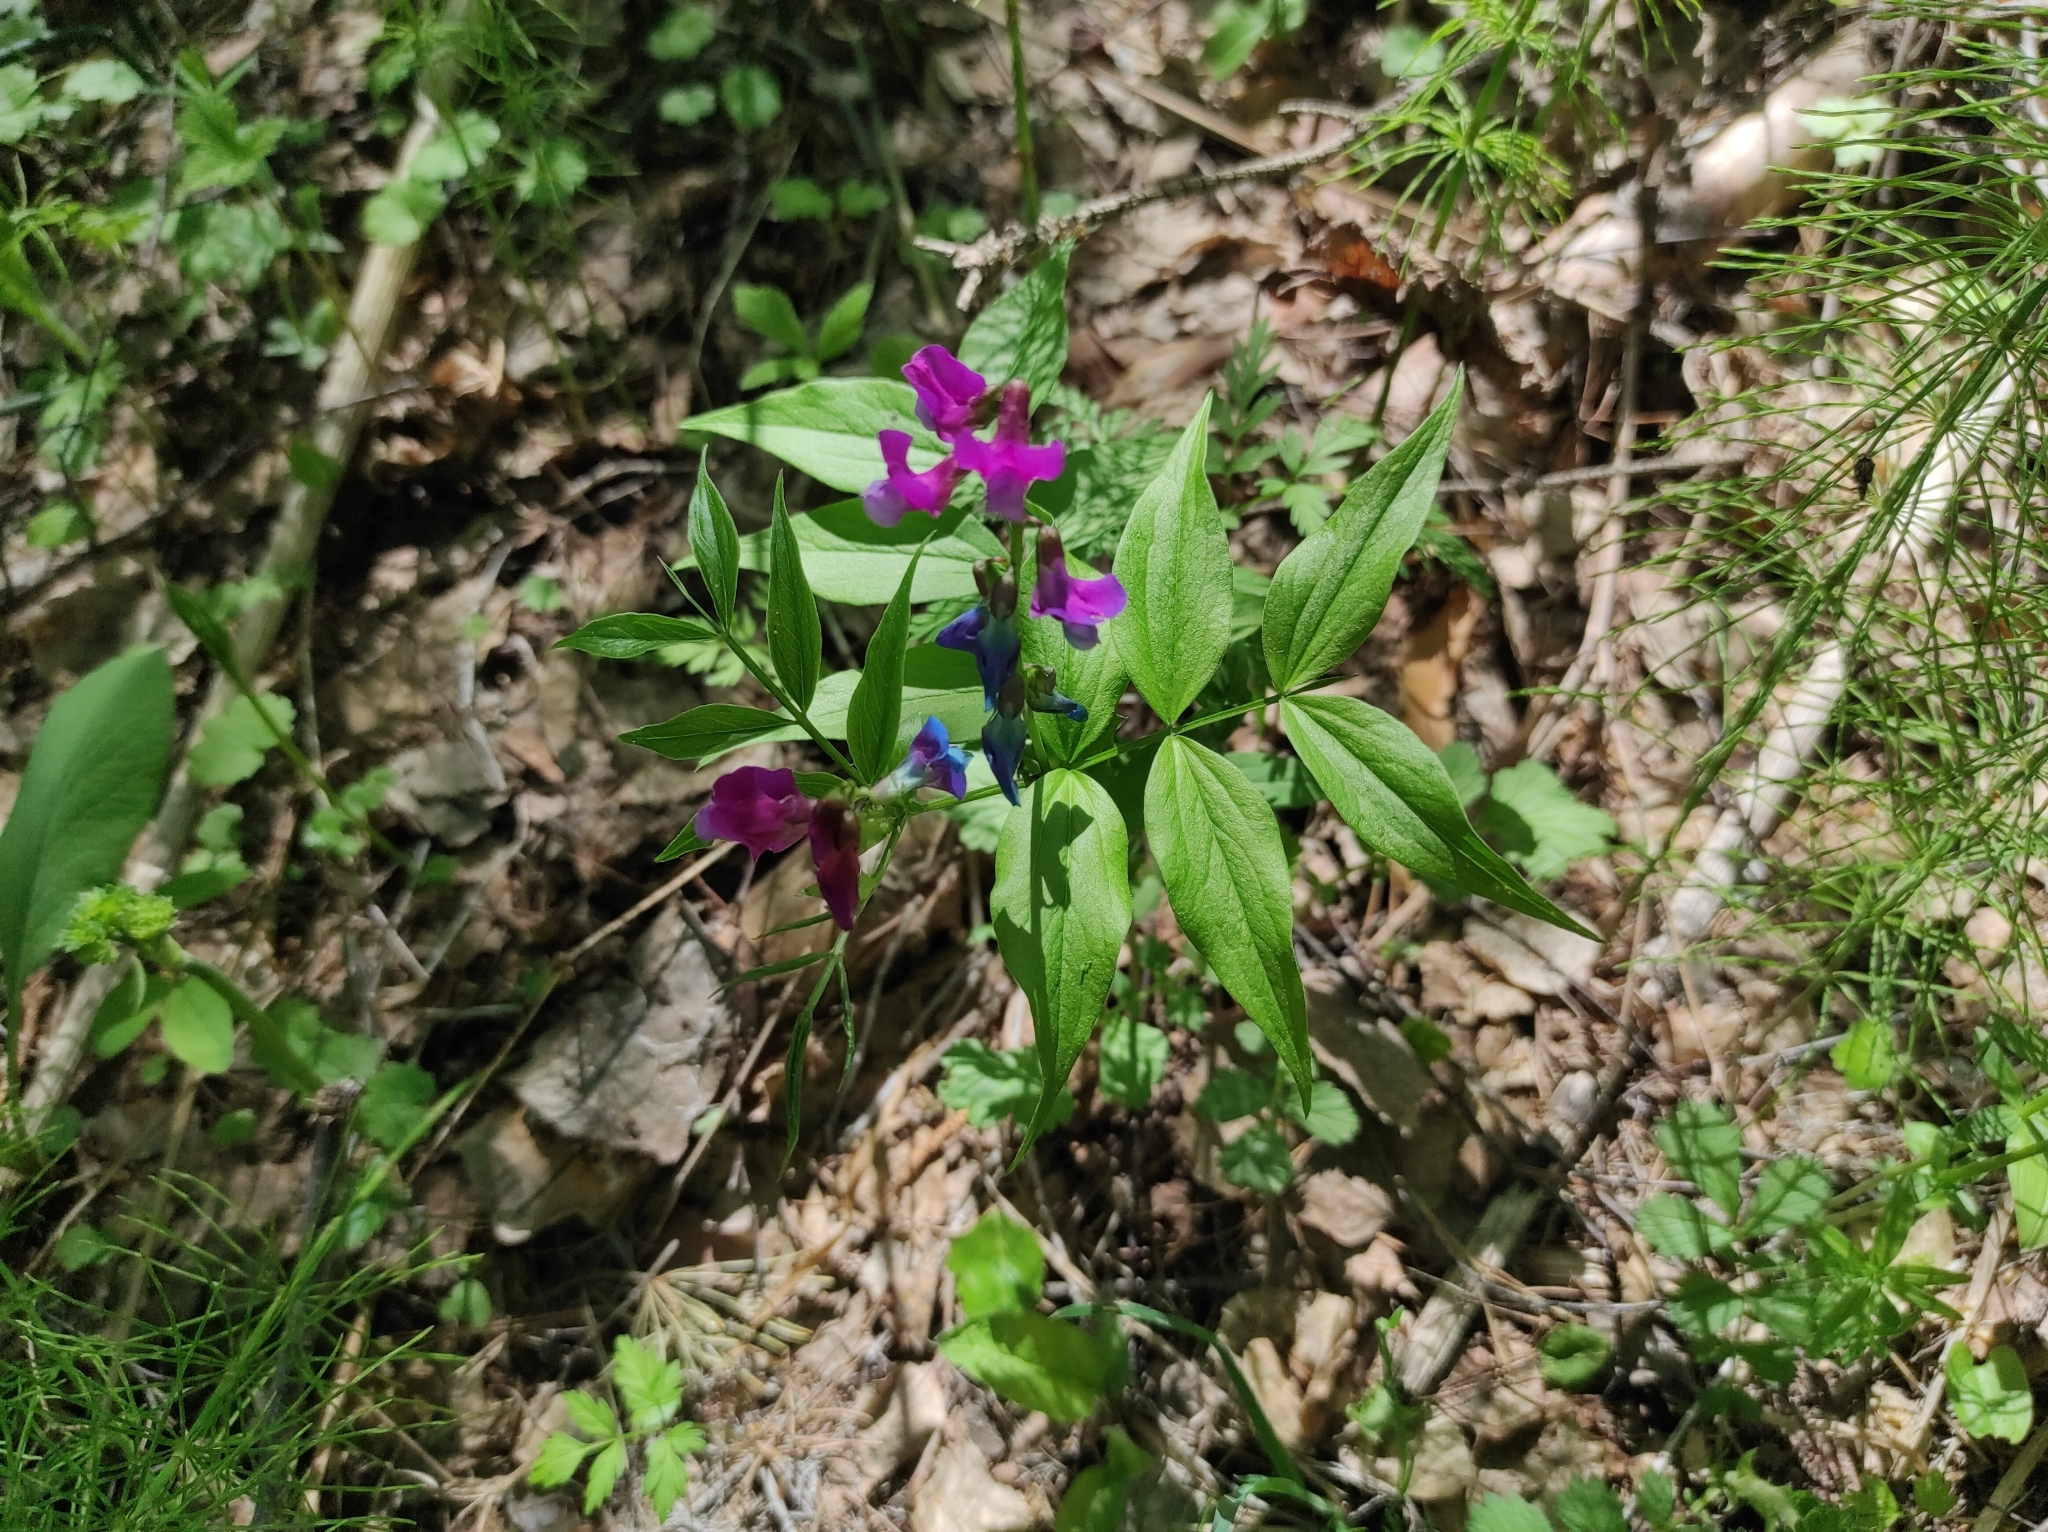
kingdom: Plantae
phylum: Tracheophyta
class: Magnoliopsida
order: Fabales
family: Fabaceae
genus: Lathyrus
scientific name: Lathyrus vernus
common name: Spring pea
